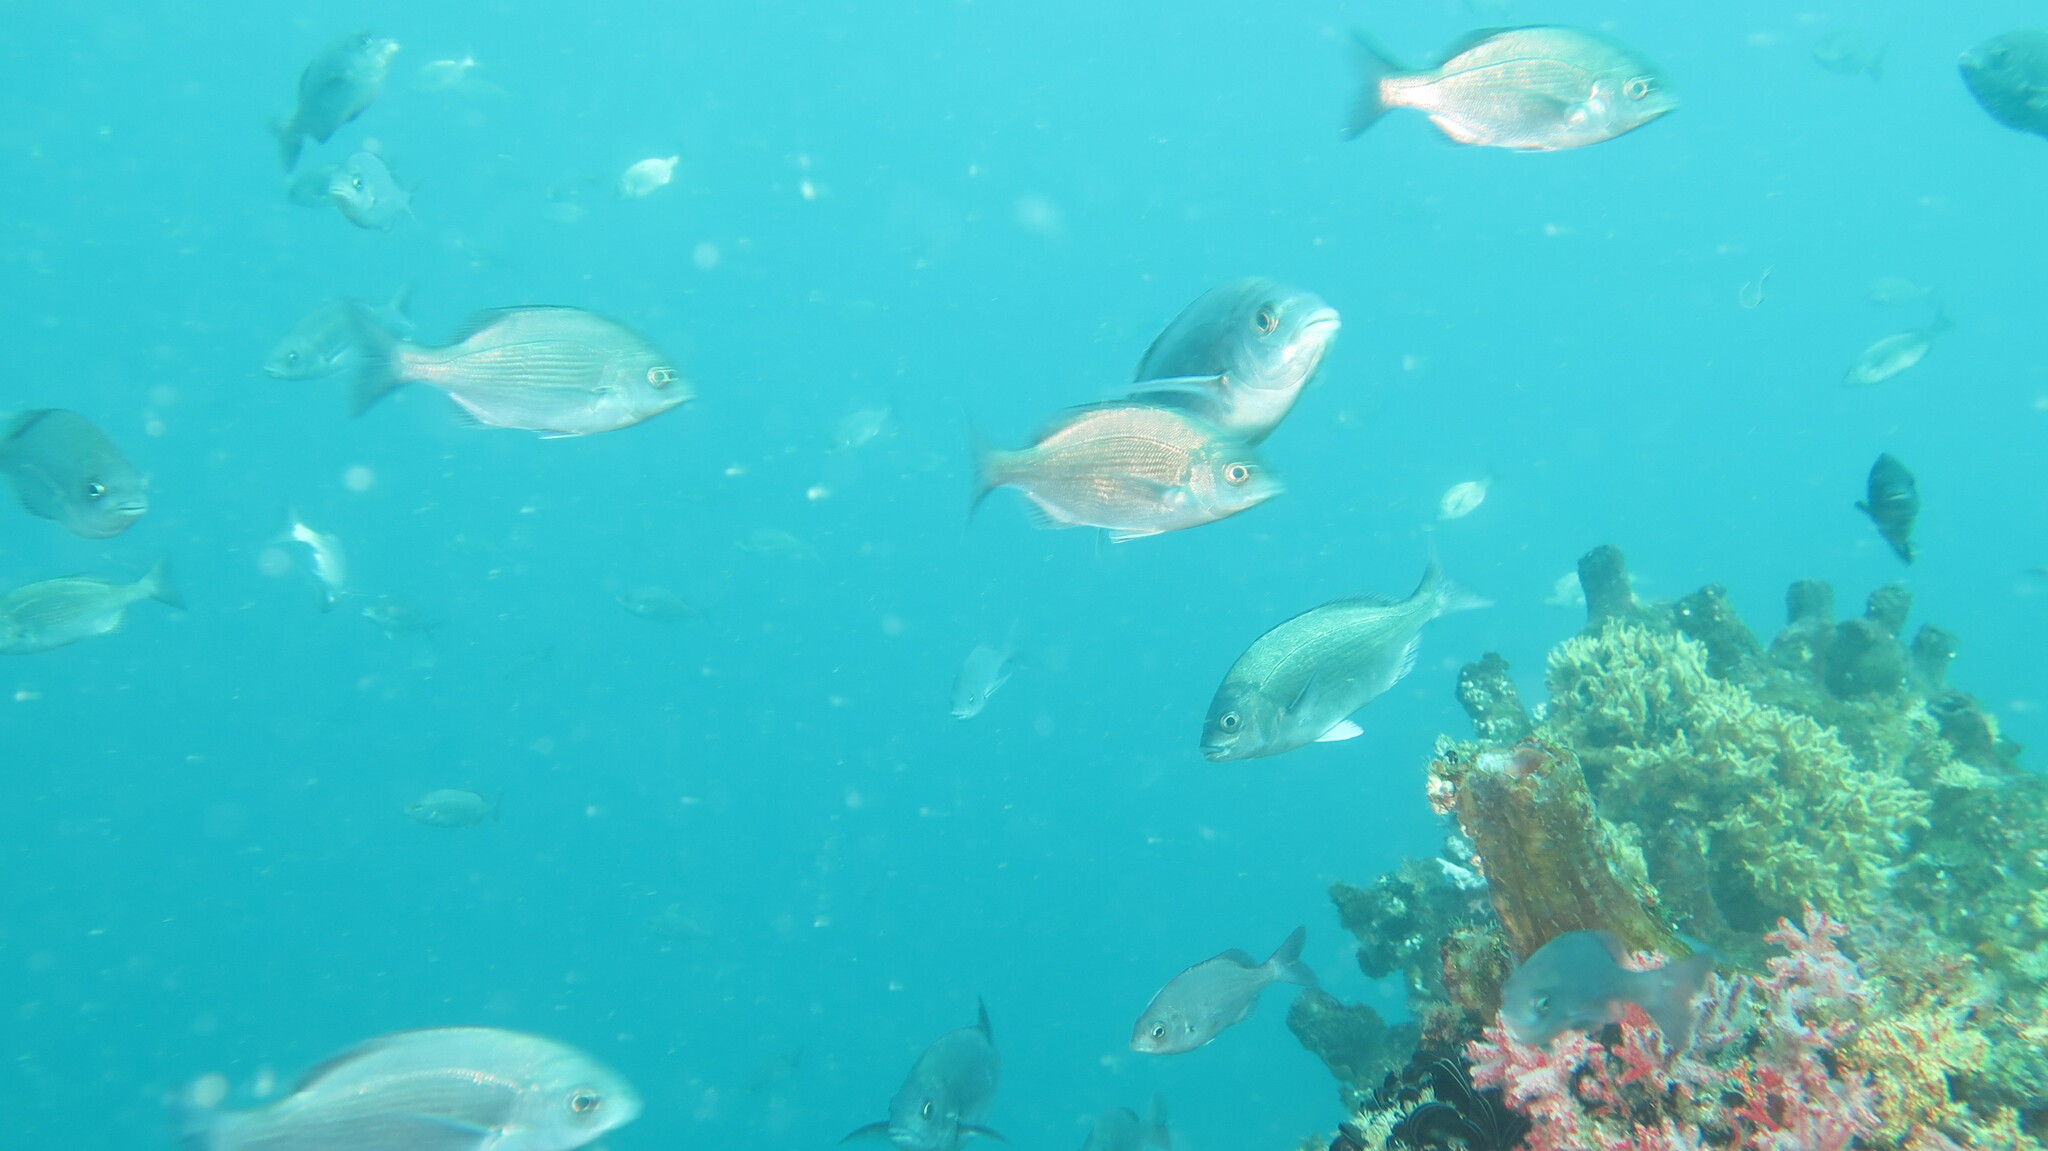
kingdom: Animalia
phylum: Chordata
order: Perciformes
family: Sparidae
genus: Pachymetopon
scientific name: Pachymetopon blochii
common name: Hottentot
